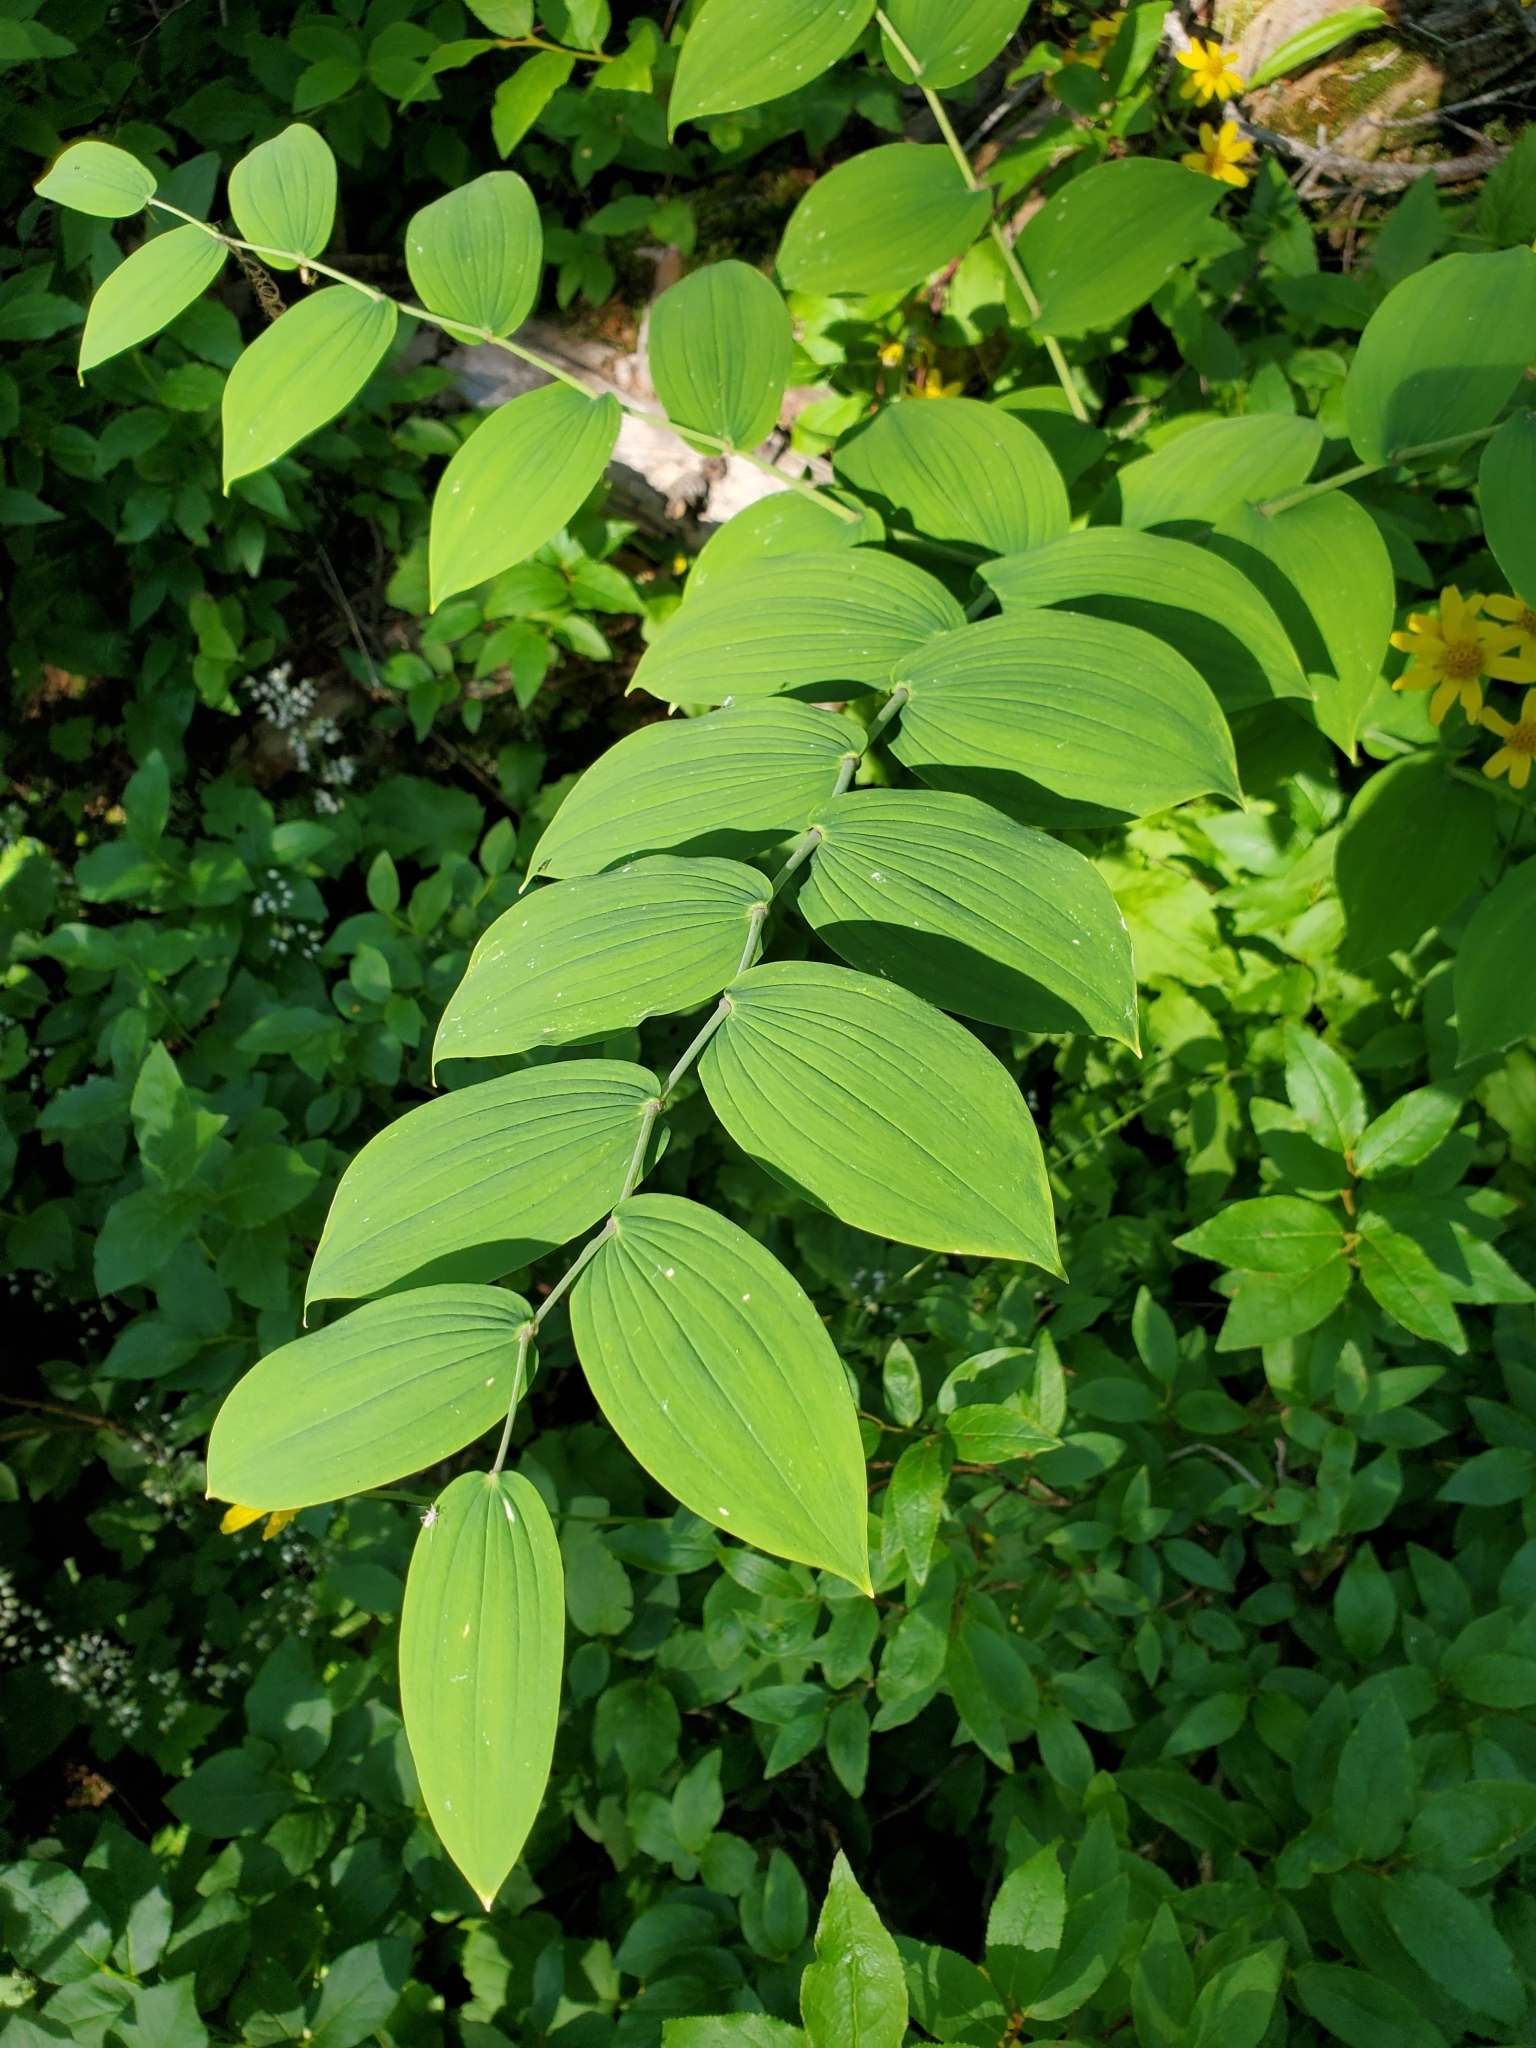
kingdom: Plantae
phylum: Tracheophyta
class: Liliopsida
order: Liliales
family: Liliaceae
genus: Streptopus
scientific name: Streptopus amplexifolius
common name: Clasp twisted stalk
